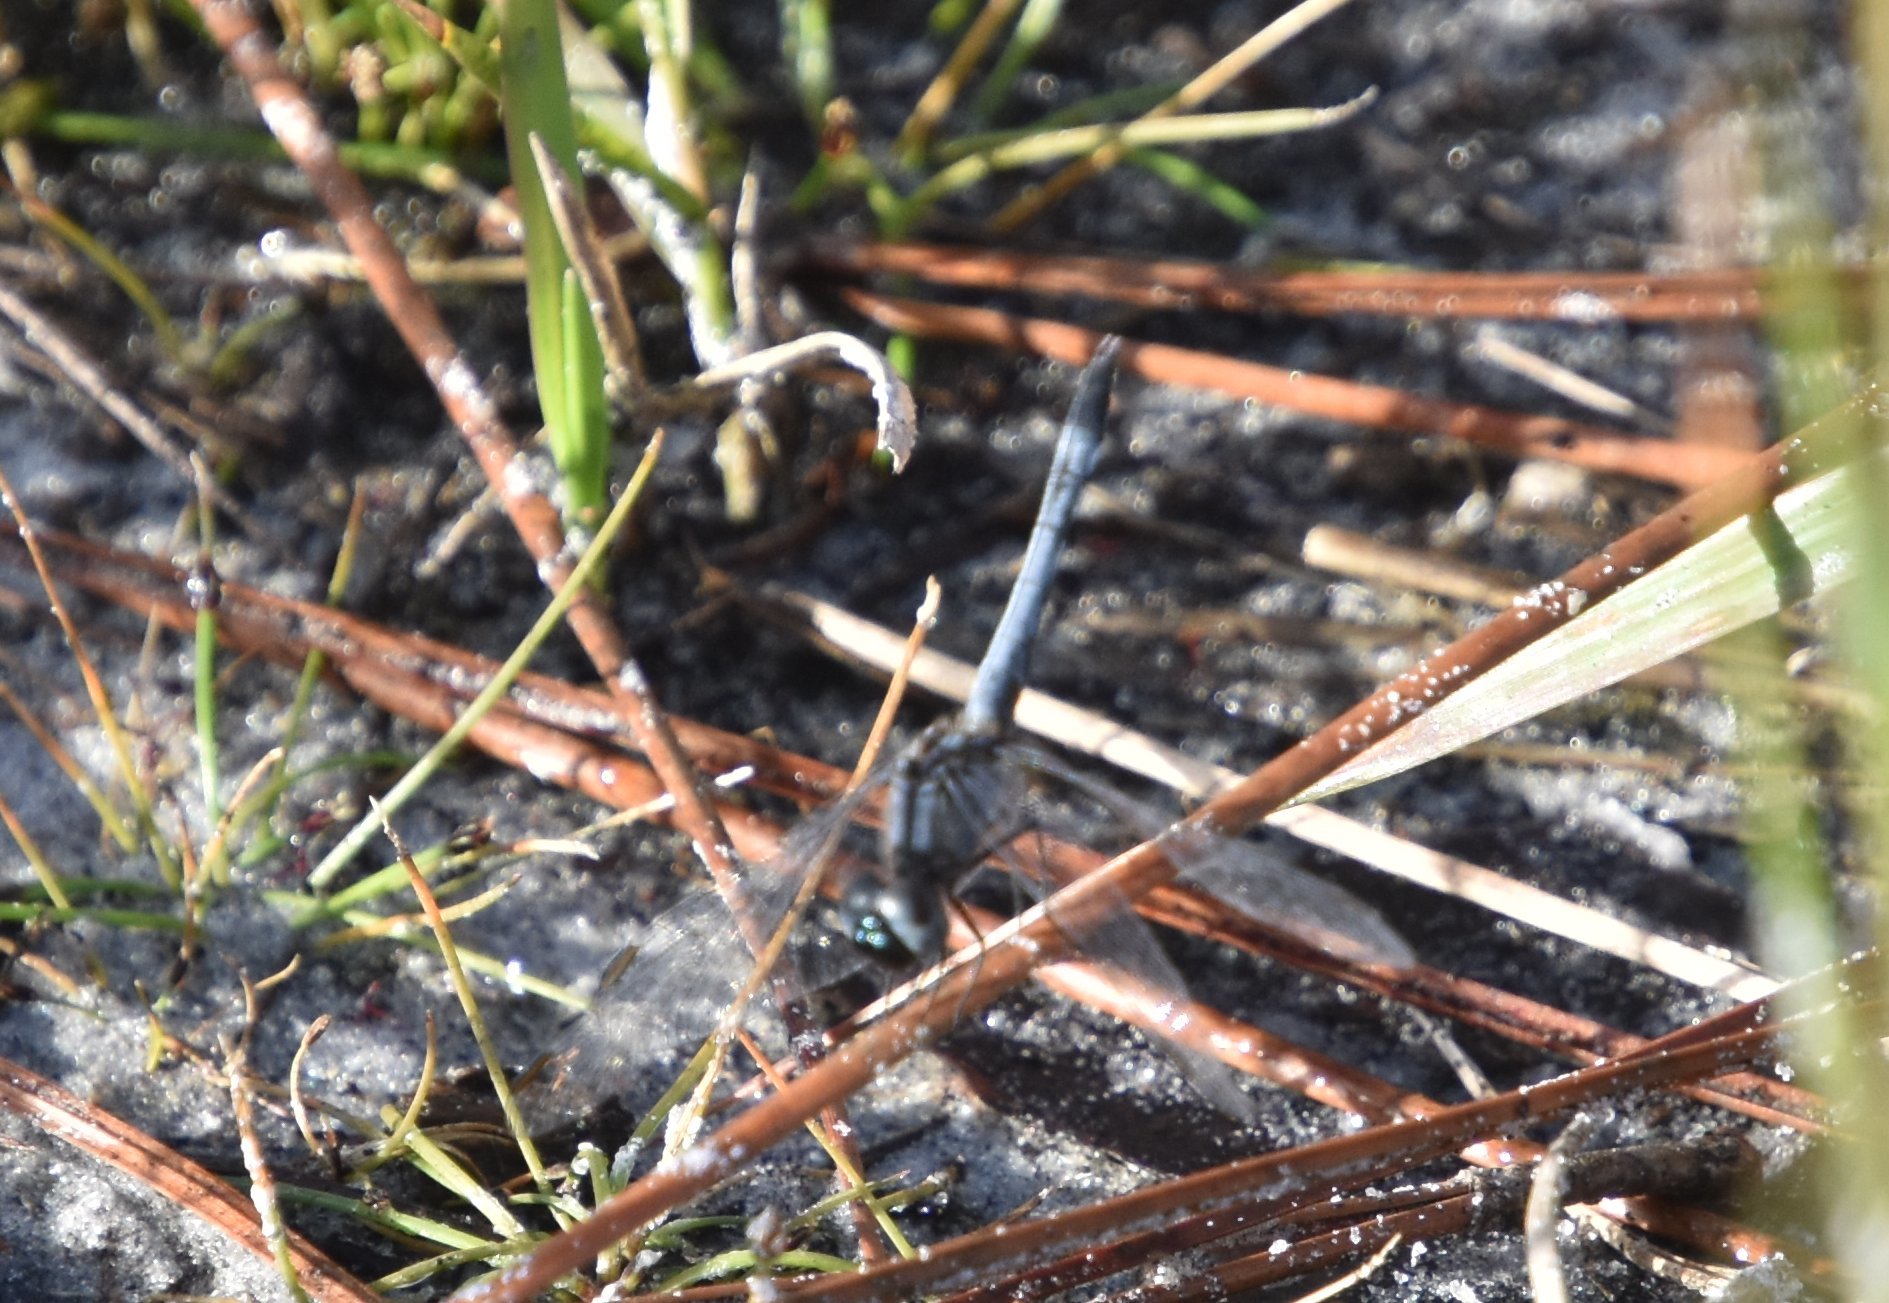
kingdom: Animalia
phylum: Arthropoda
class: Insecta
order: Odonata
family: Libellulidae
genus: Erythrodiplax
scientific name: Erythrodiplax minuscula
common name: Little blue dragonlet
